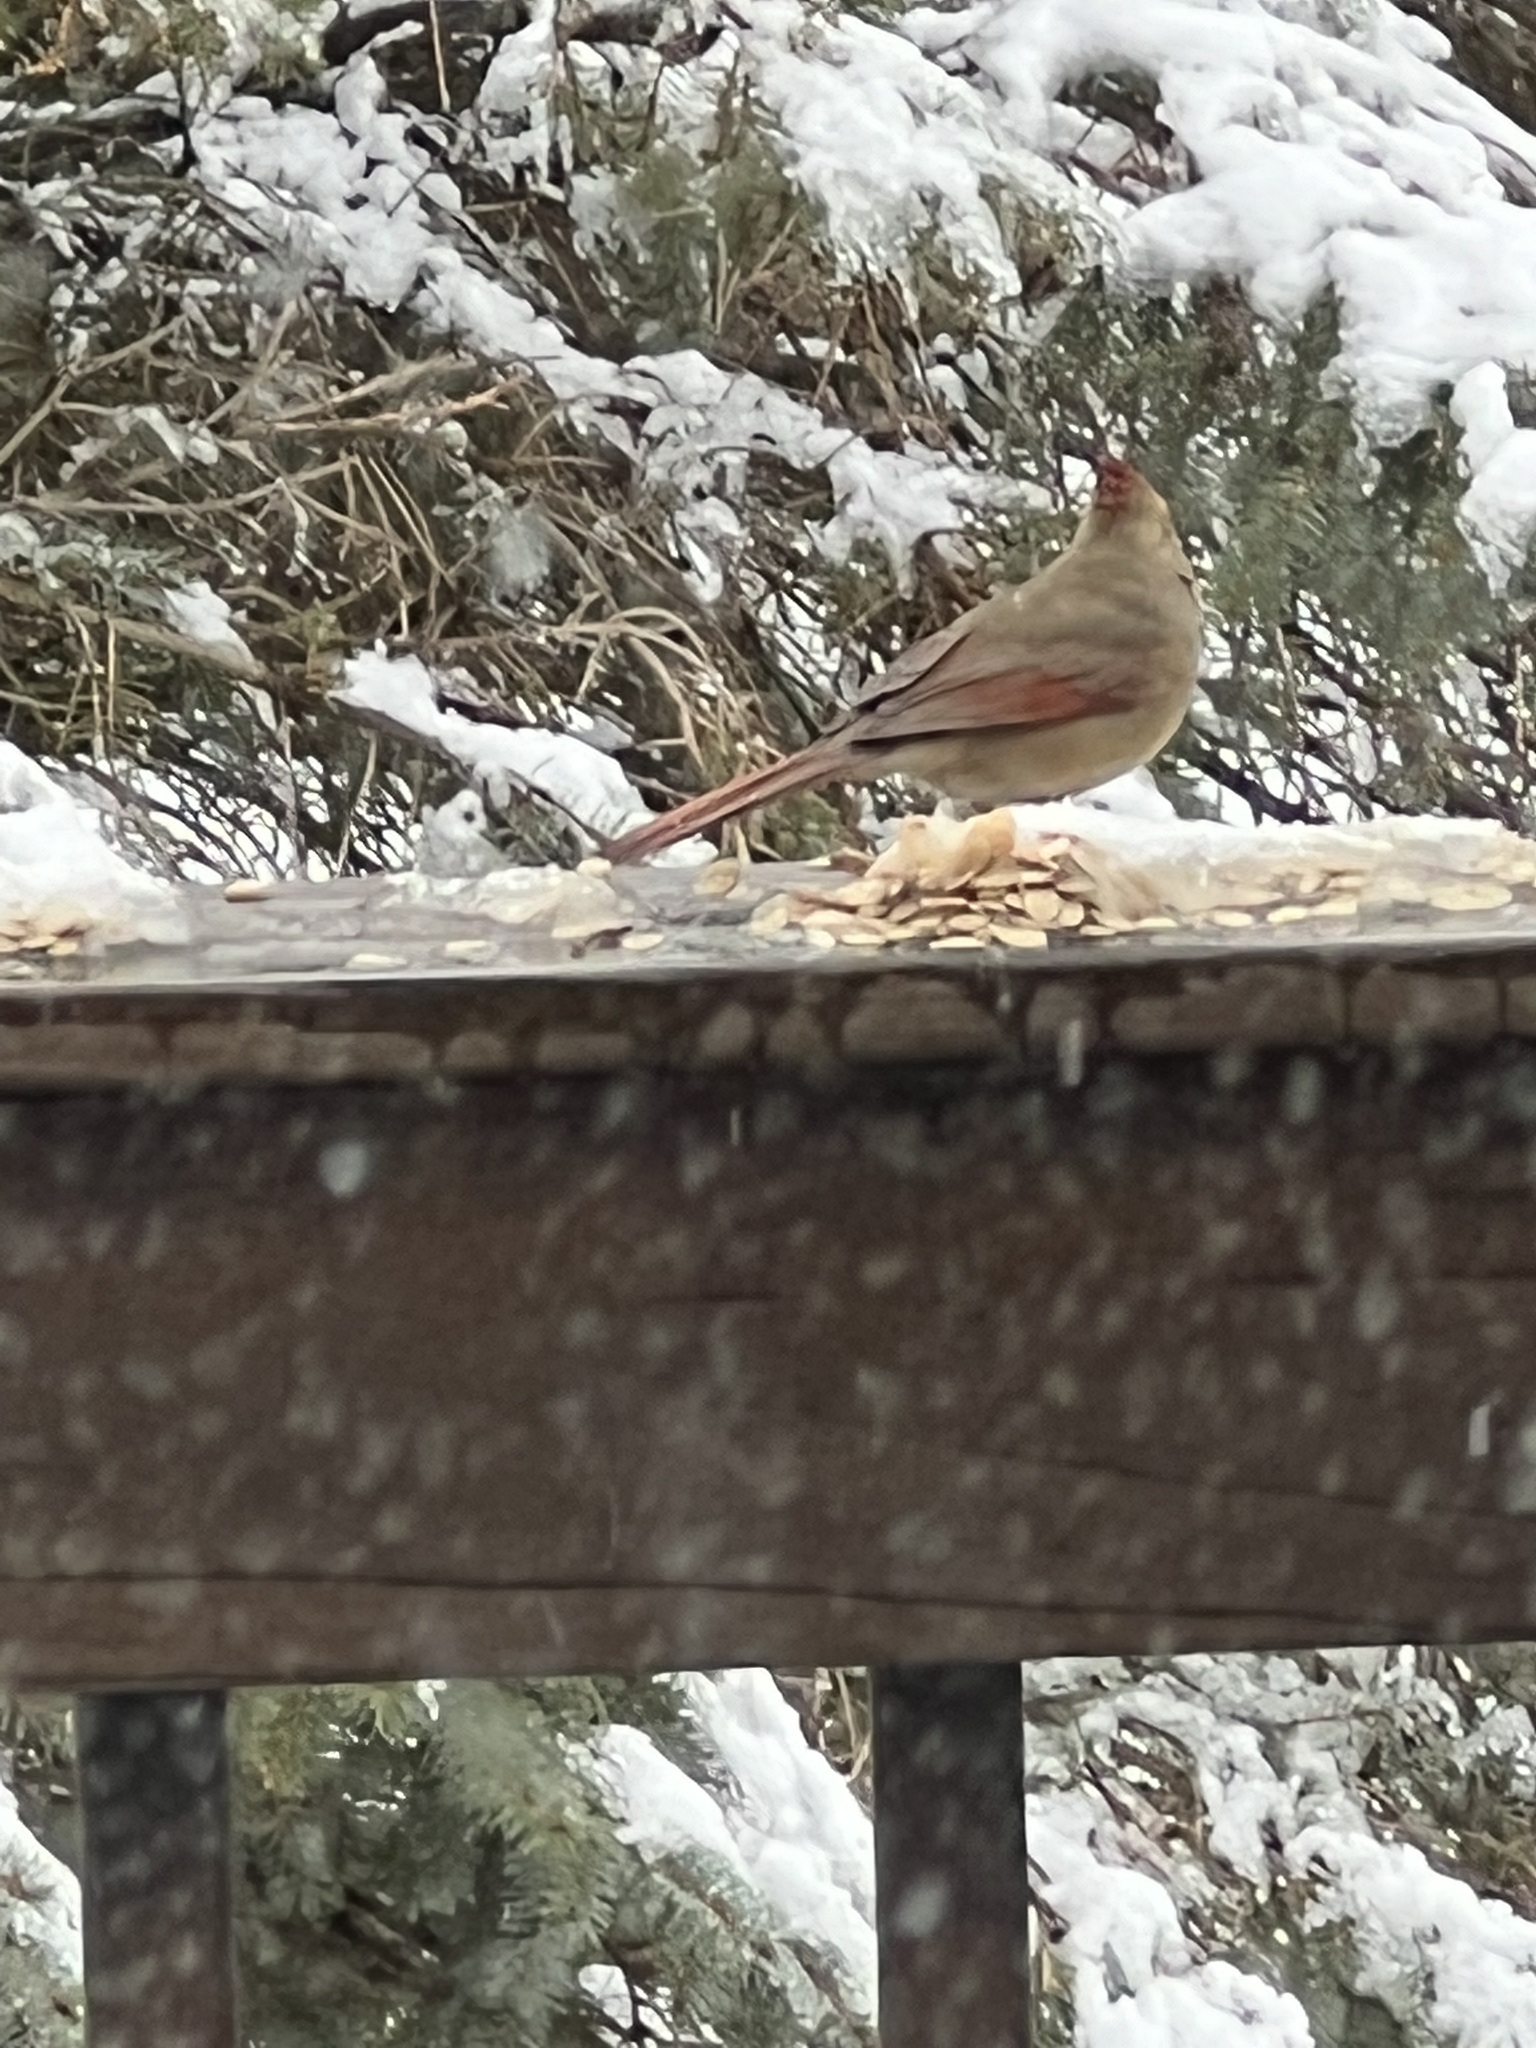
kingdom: Animalia
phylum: Chordata
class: Aves
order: Passeriformes
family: Cardinalidae
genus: Cardinalis
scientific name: Cardinalis cardinalis
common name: Northern cardinal
